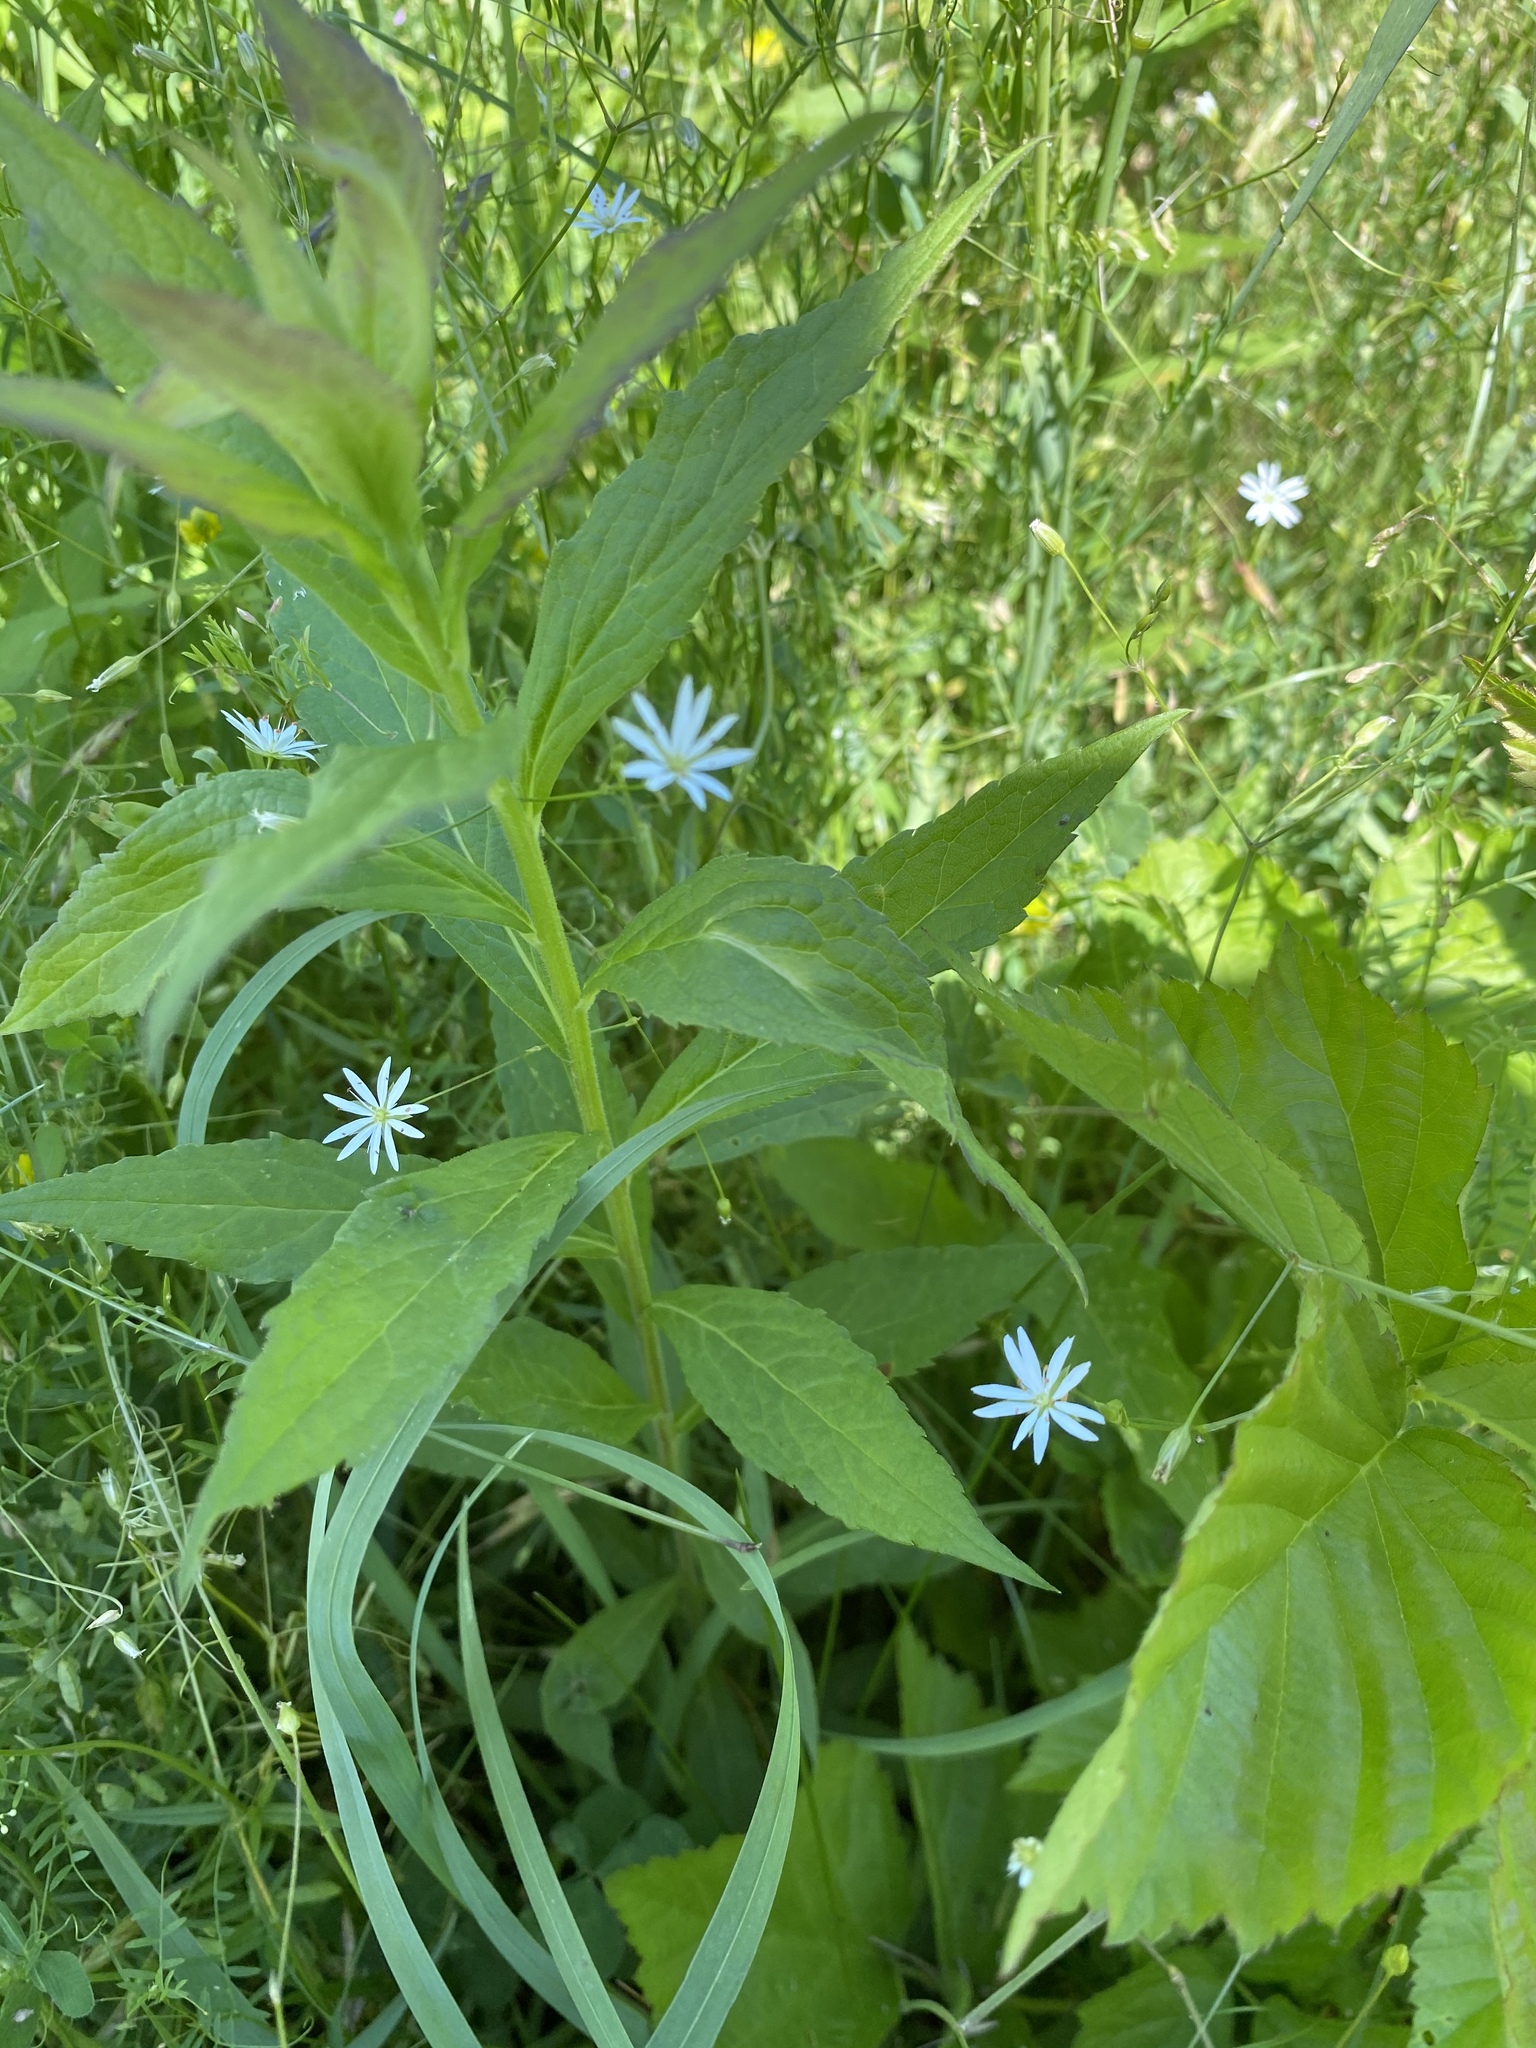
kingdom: Plantae
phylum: Tracheophyta
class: Magnoliopsida
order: Caryophyllales
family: Caryophyllaceae
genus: Stellaria
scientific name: Stellaria graminea
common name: Grass-like starwort
